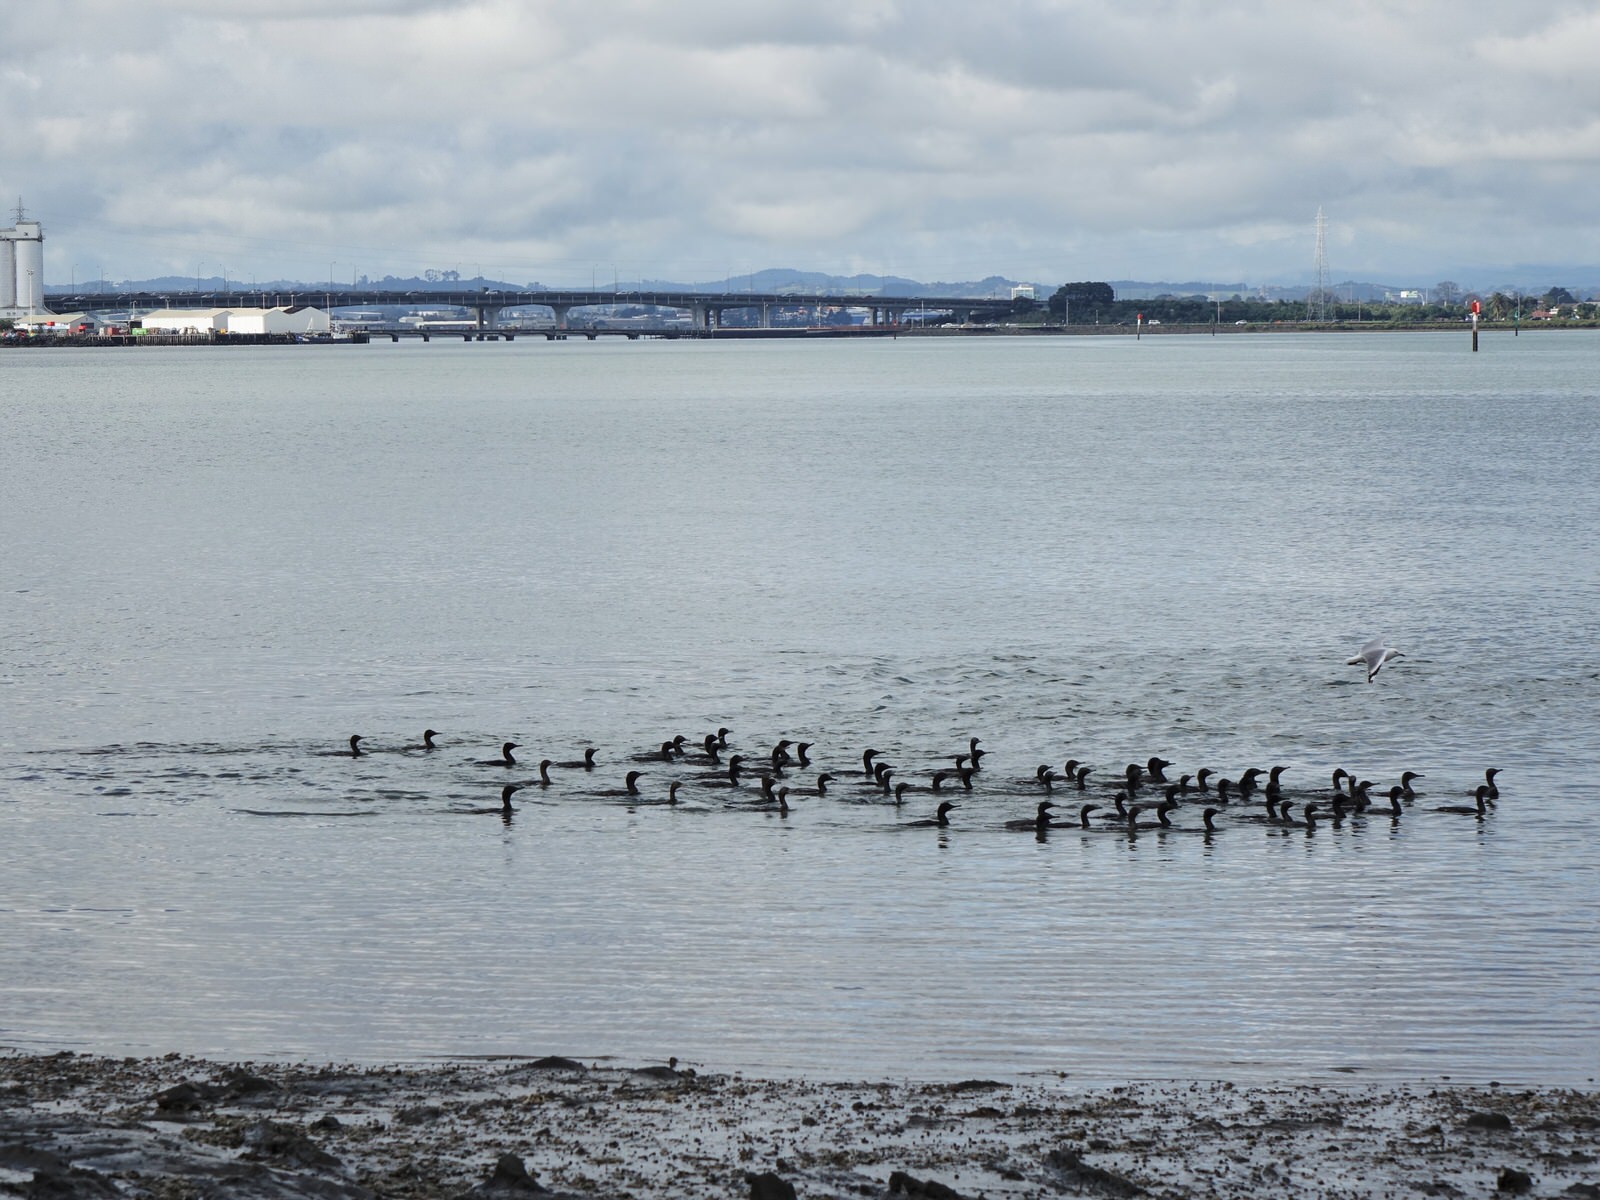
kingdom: Animalia
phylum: Chordata
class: Aves
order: Suliformes
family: Phalacrocoracidae
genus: Phalacrocorax
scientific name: Phalacrocorax sulcirostris
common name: Little black cormorant
